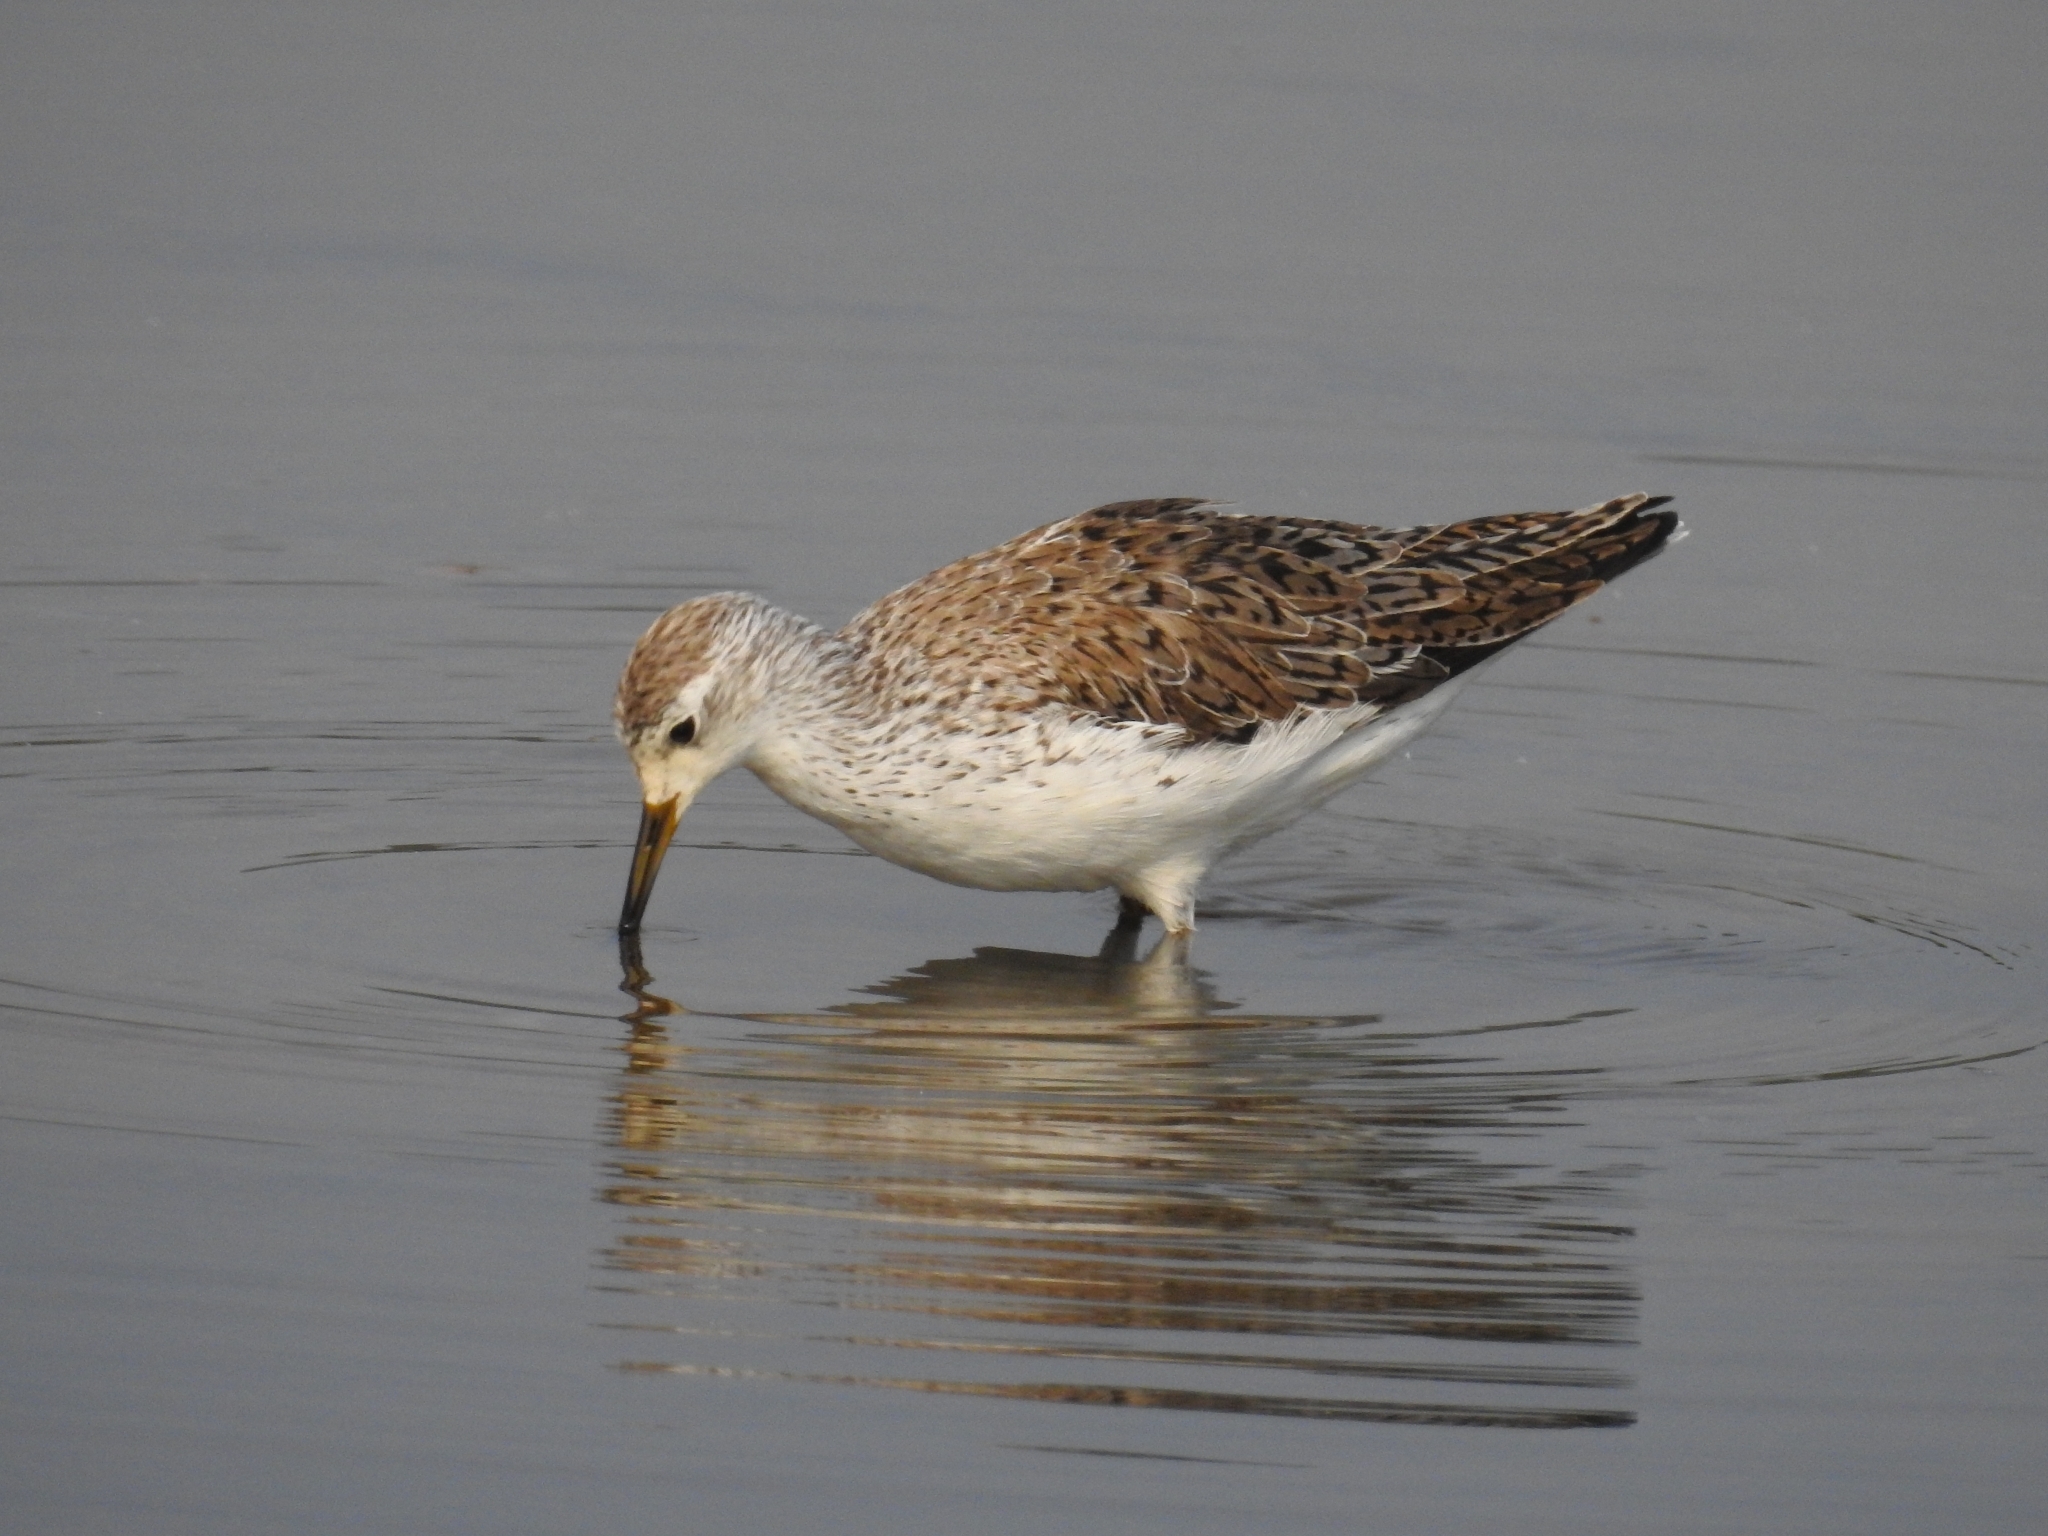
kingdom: Animalia
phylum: Chordata
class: Aves
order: Charadriiformes
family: Scolopacidae
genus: Tringa
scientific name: Tringa stagnatilis
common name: Marsh sandpiper
